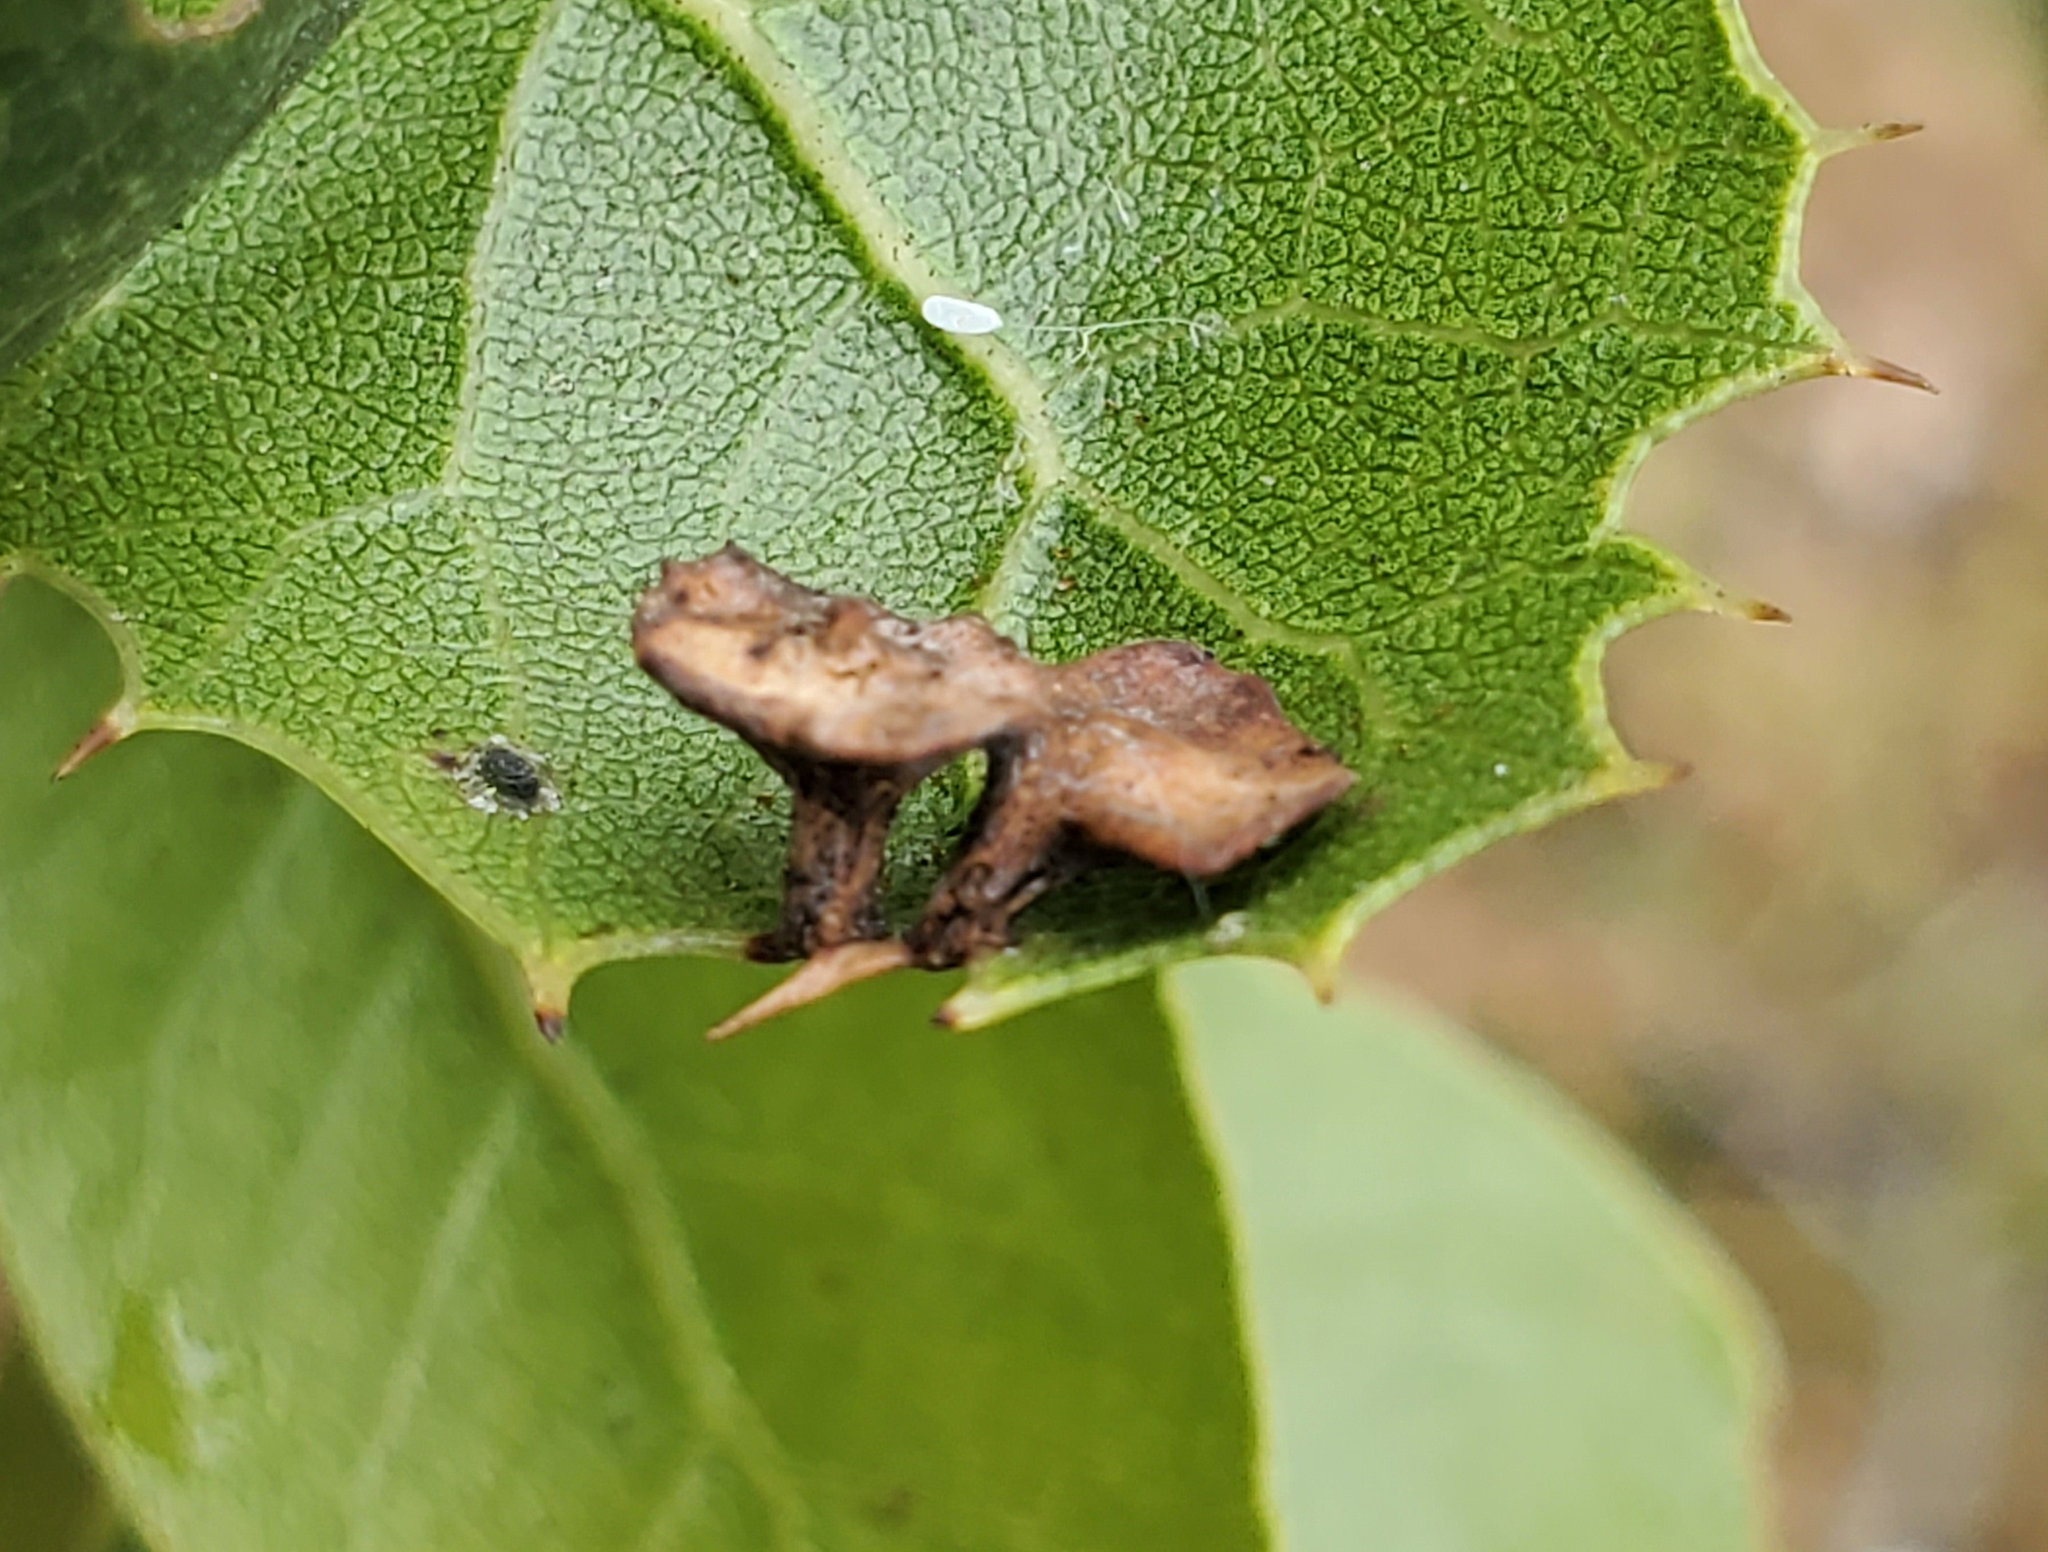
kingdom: Animalia
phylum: Arthropoda
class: Insecta
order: Hymenoptera
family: Cynipidae
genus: Amphibolips
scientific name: Amphibolips quercuspomiformis
